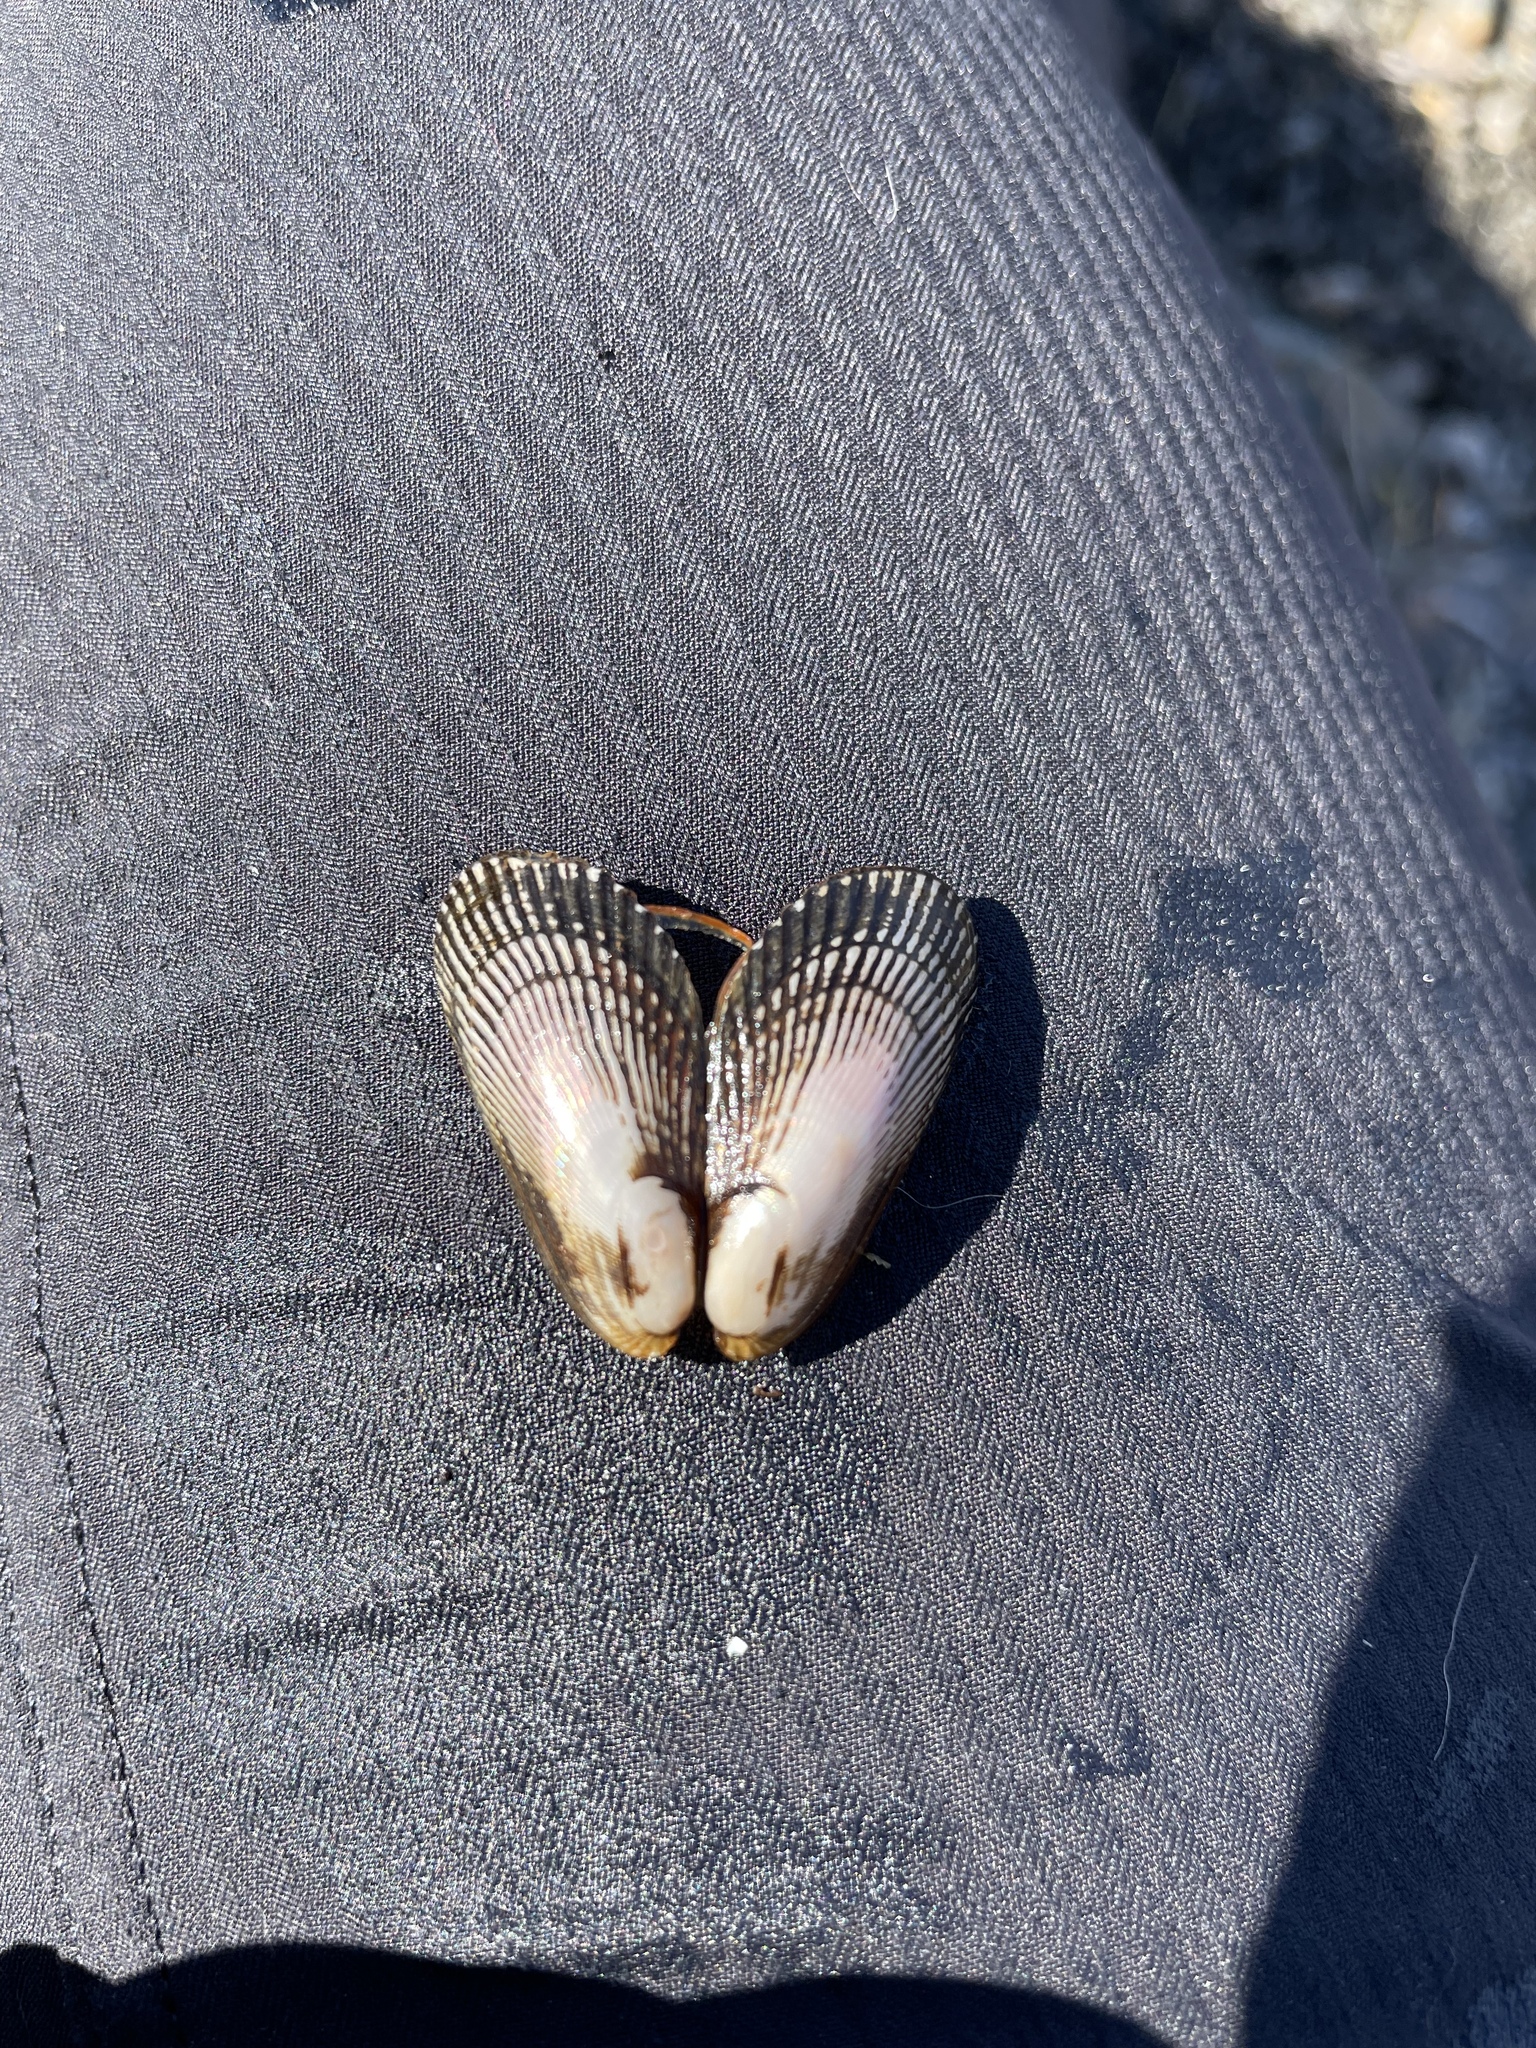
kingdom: Animalia
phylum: Mollusca
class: Bivalvia
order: Mytilida
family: Mytilidae
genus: Geukensia
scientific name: Geukensia demissa
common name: Ribbed mussel
